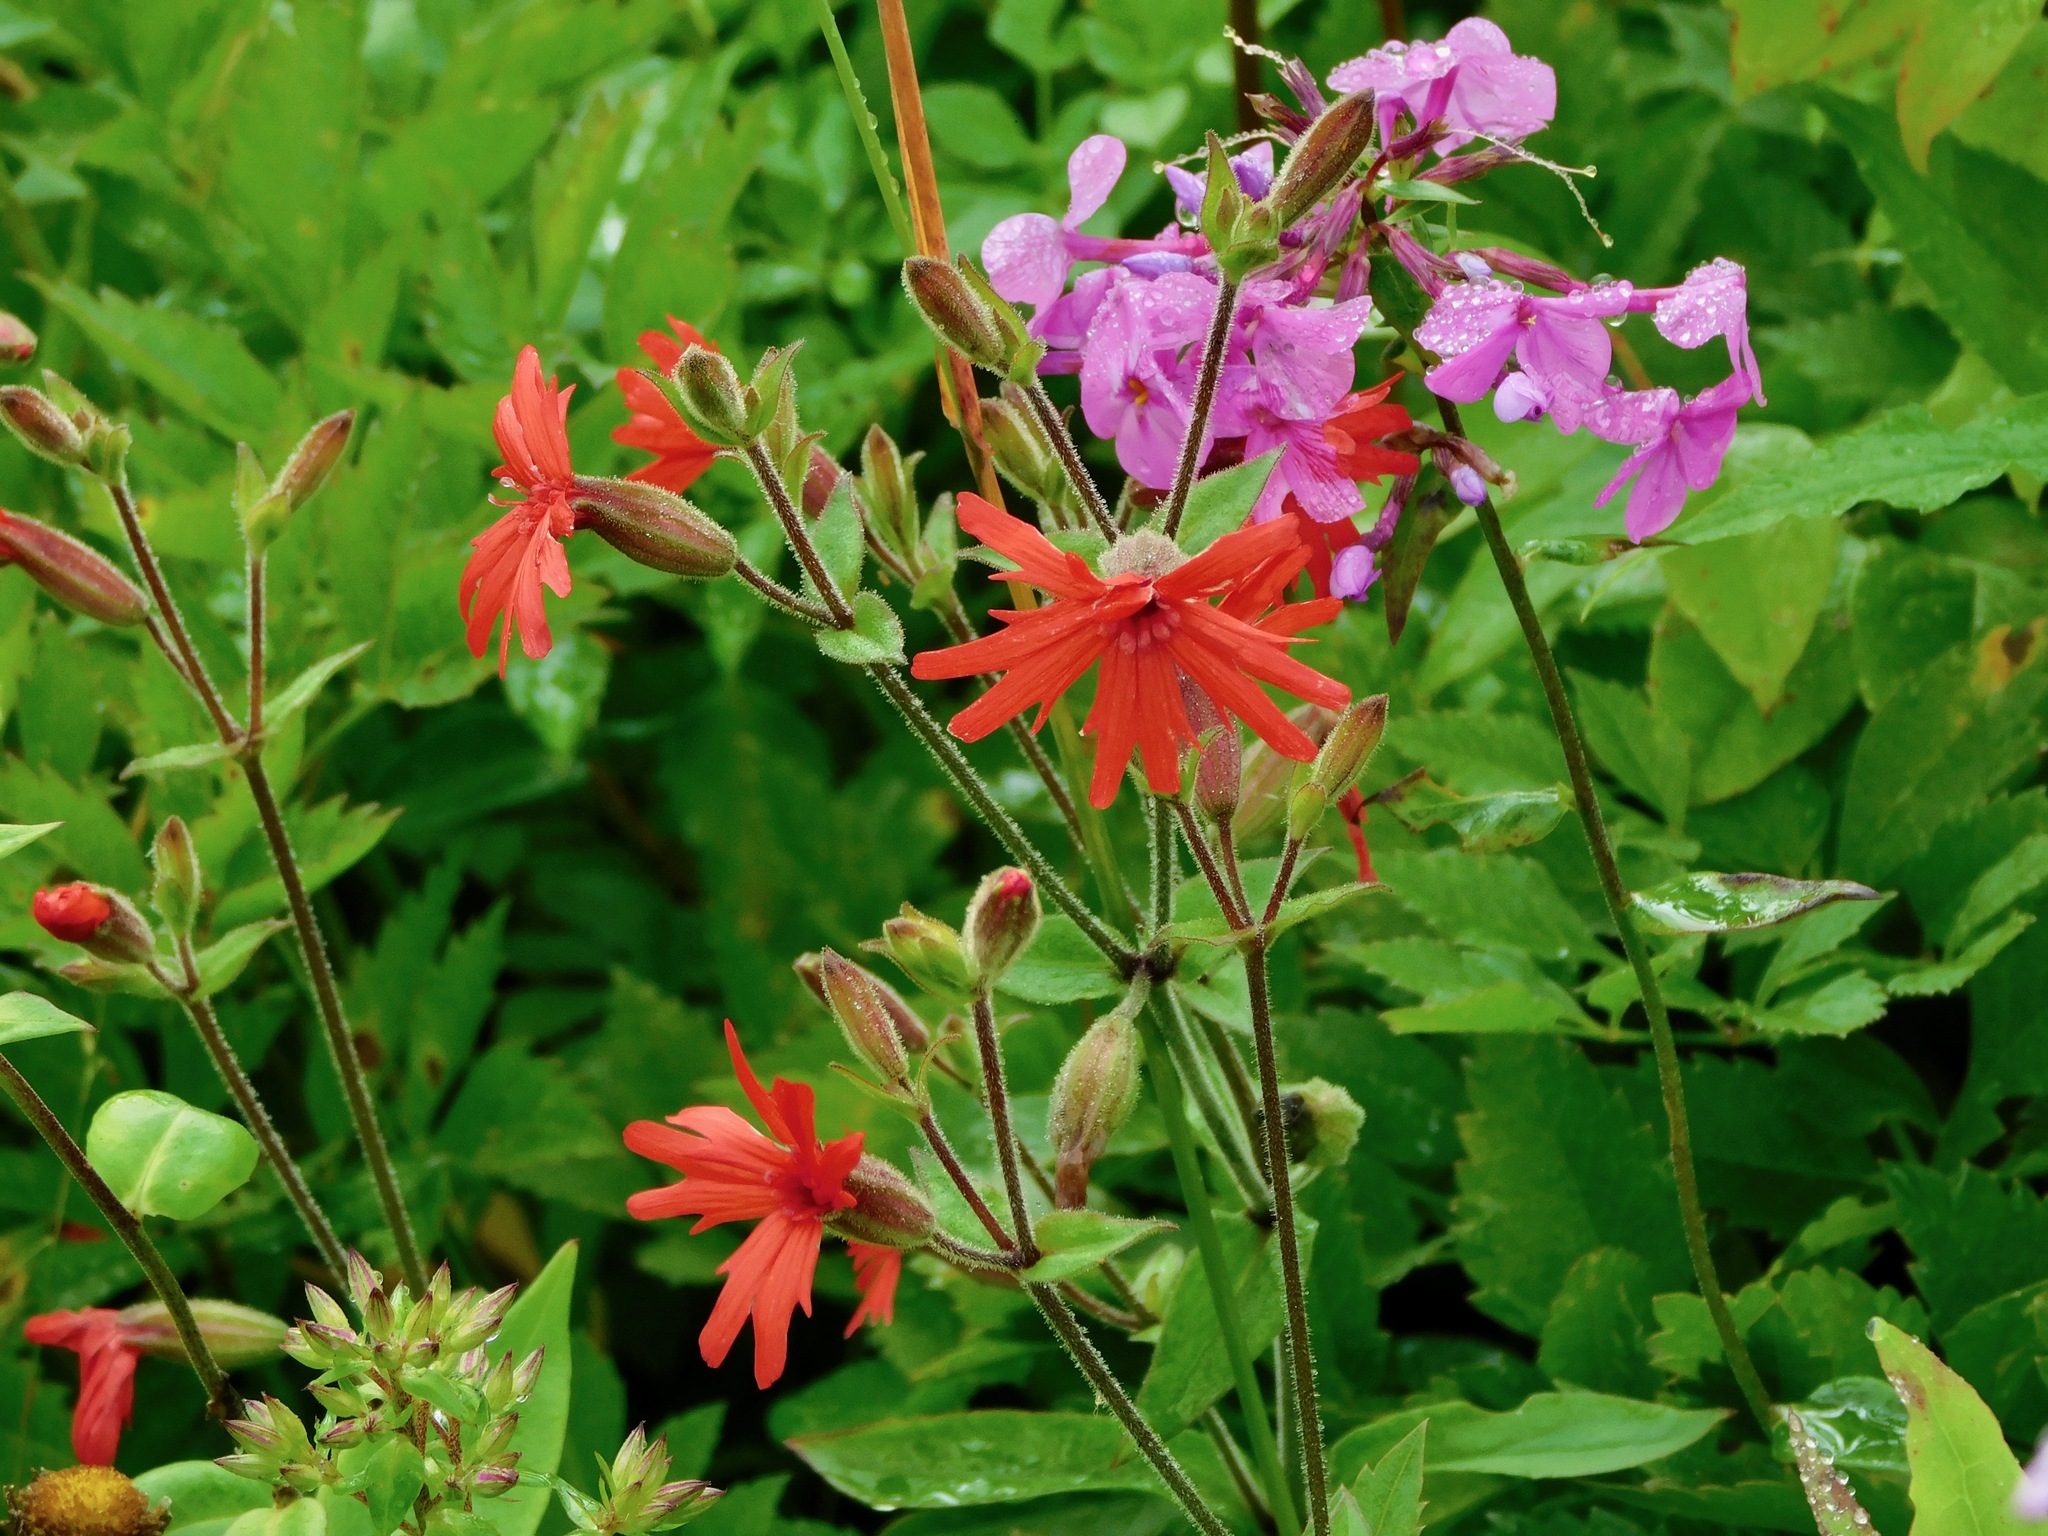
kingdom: Plantae
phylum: Tracheophyta
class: Magnoliopsida
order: Caryophyllales
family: Caryophyllaceae
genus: Silene
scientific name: Silene virginica
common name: Fire-pink
